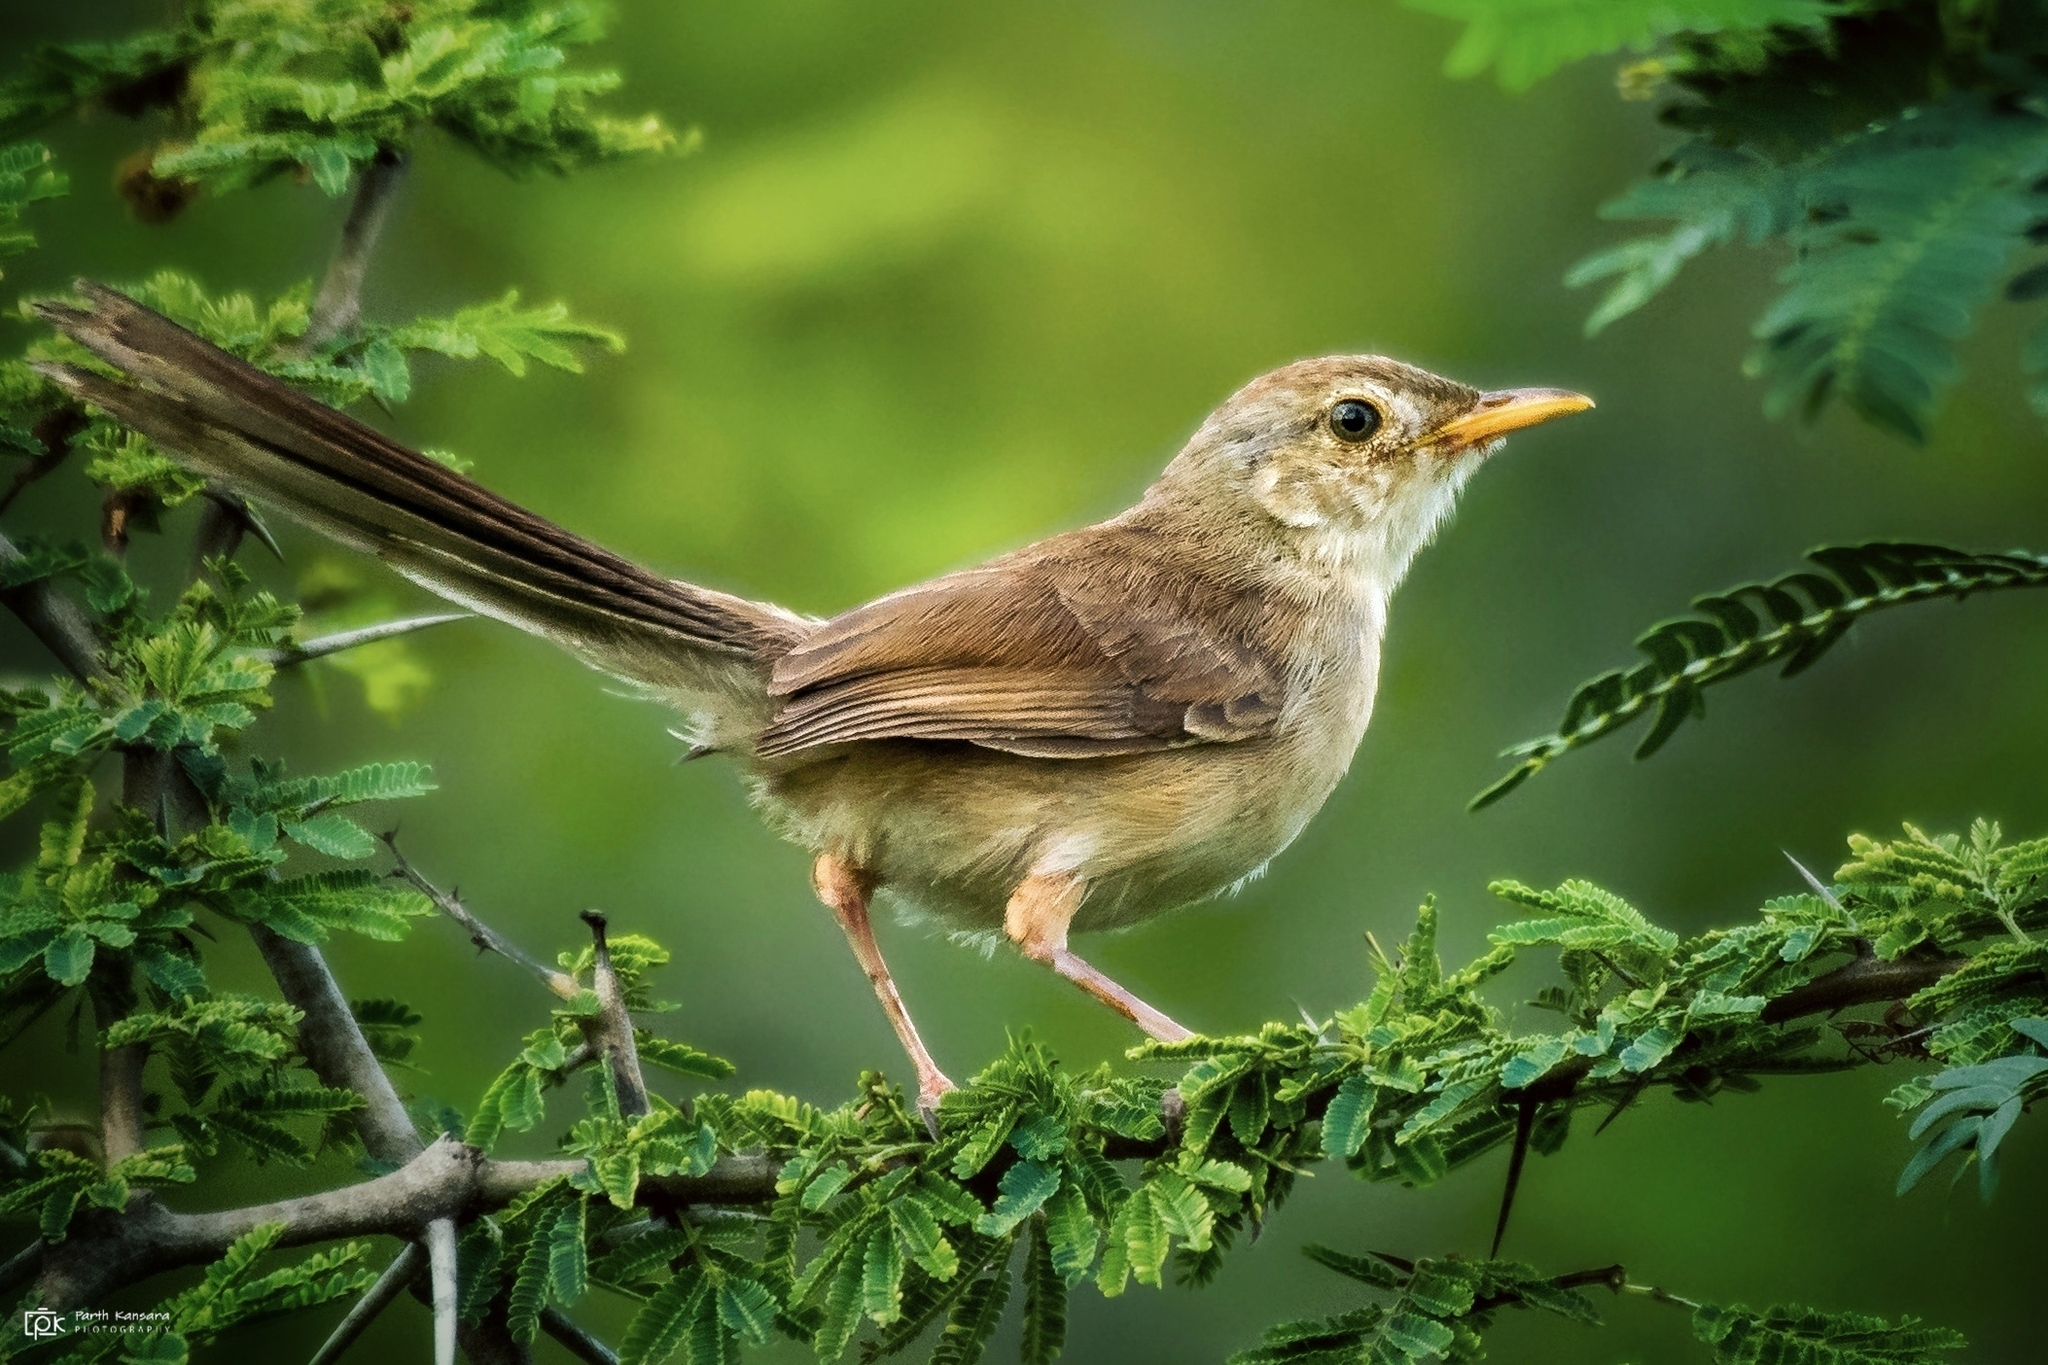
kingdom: Animalia
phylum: Chordata
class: Aves
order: Passeriformes
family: Cisticolidae
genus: Prinia
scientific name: Prinia sylvatica
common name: Jungle prinia
